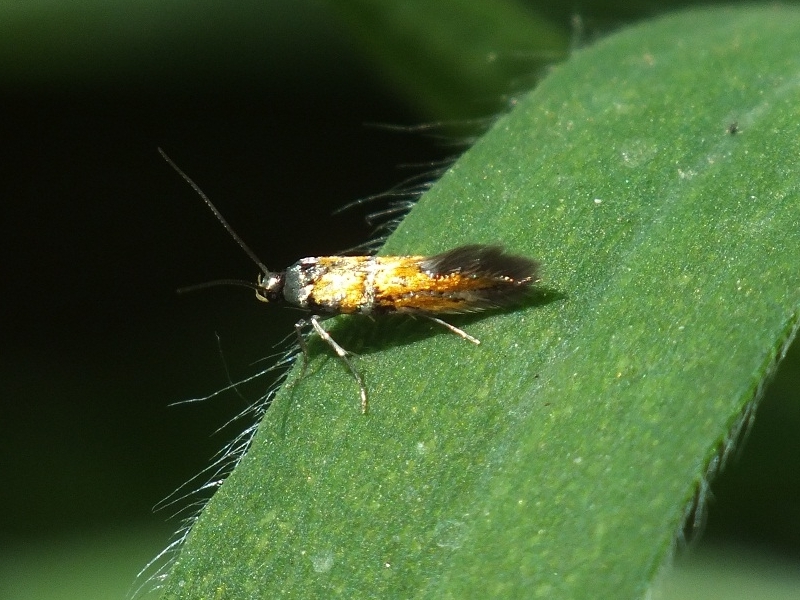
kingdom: Animalia
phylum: Arthropoda
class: Insecta
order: Lepidoptera
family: Gelechiidae
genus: Chrysoesthia
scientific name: Chrysoesthia drurella
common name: Flame neb
